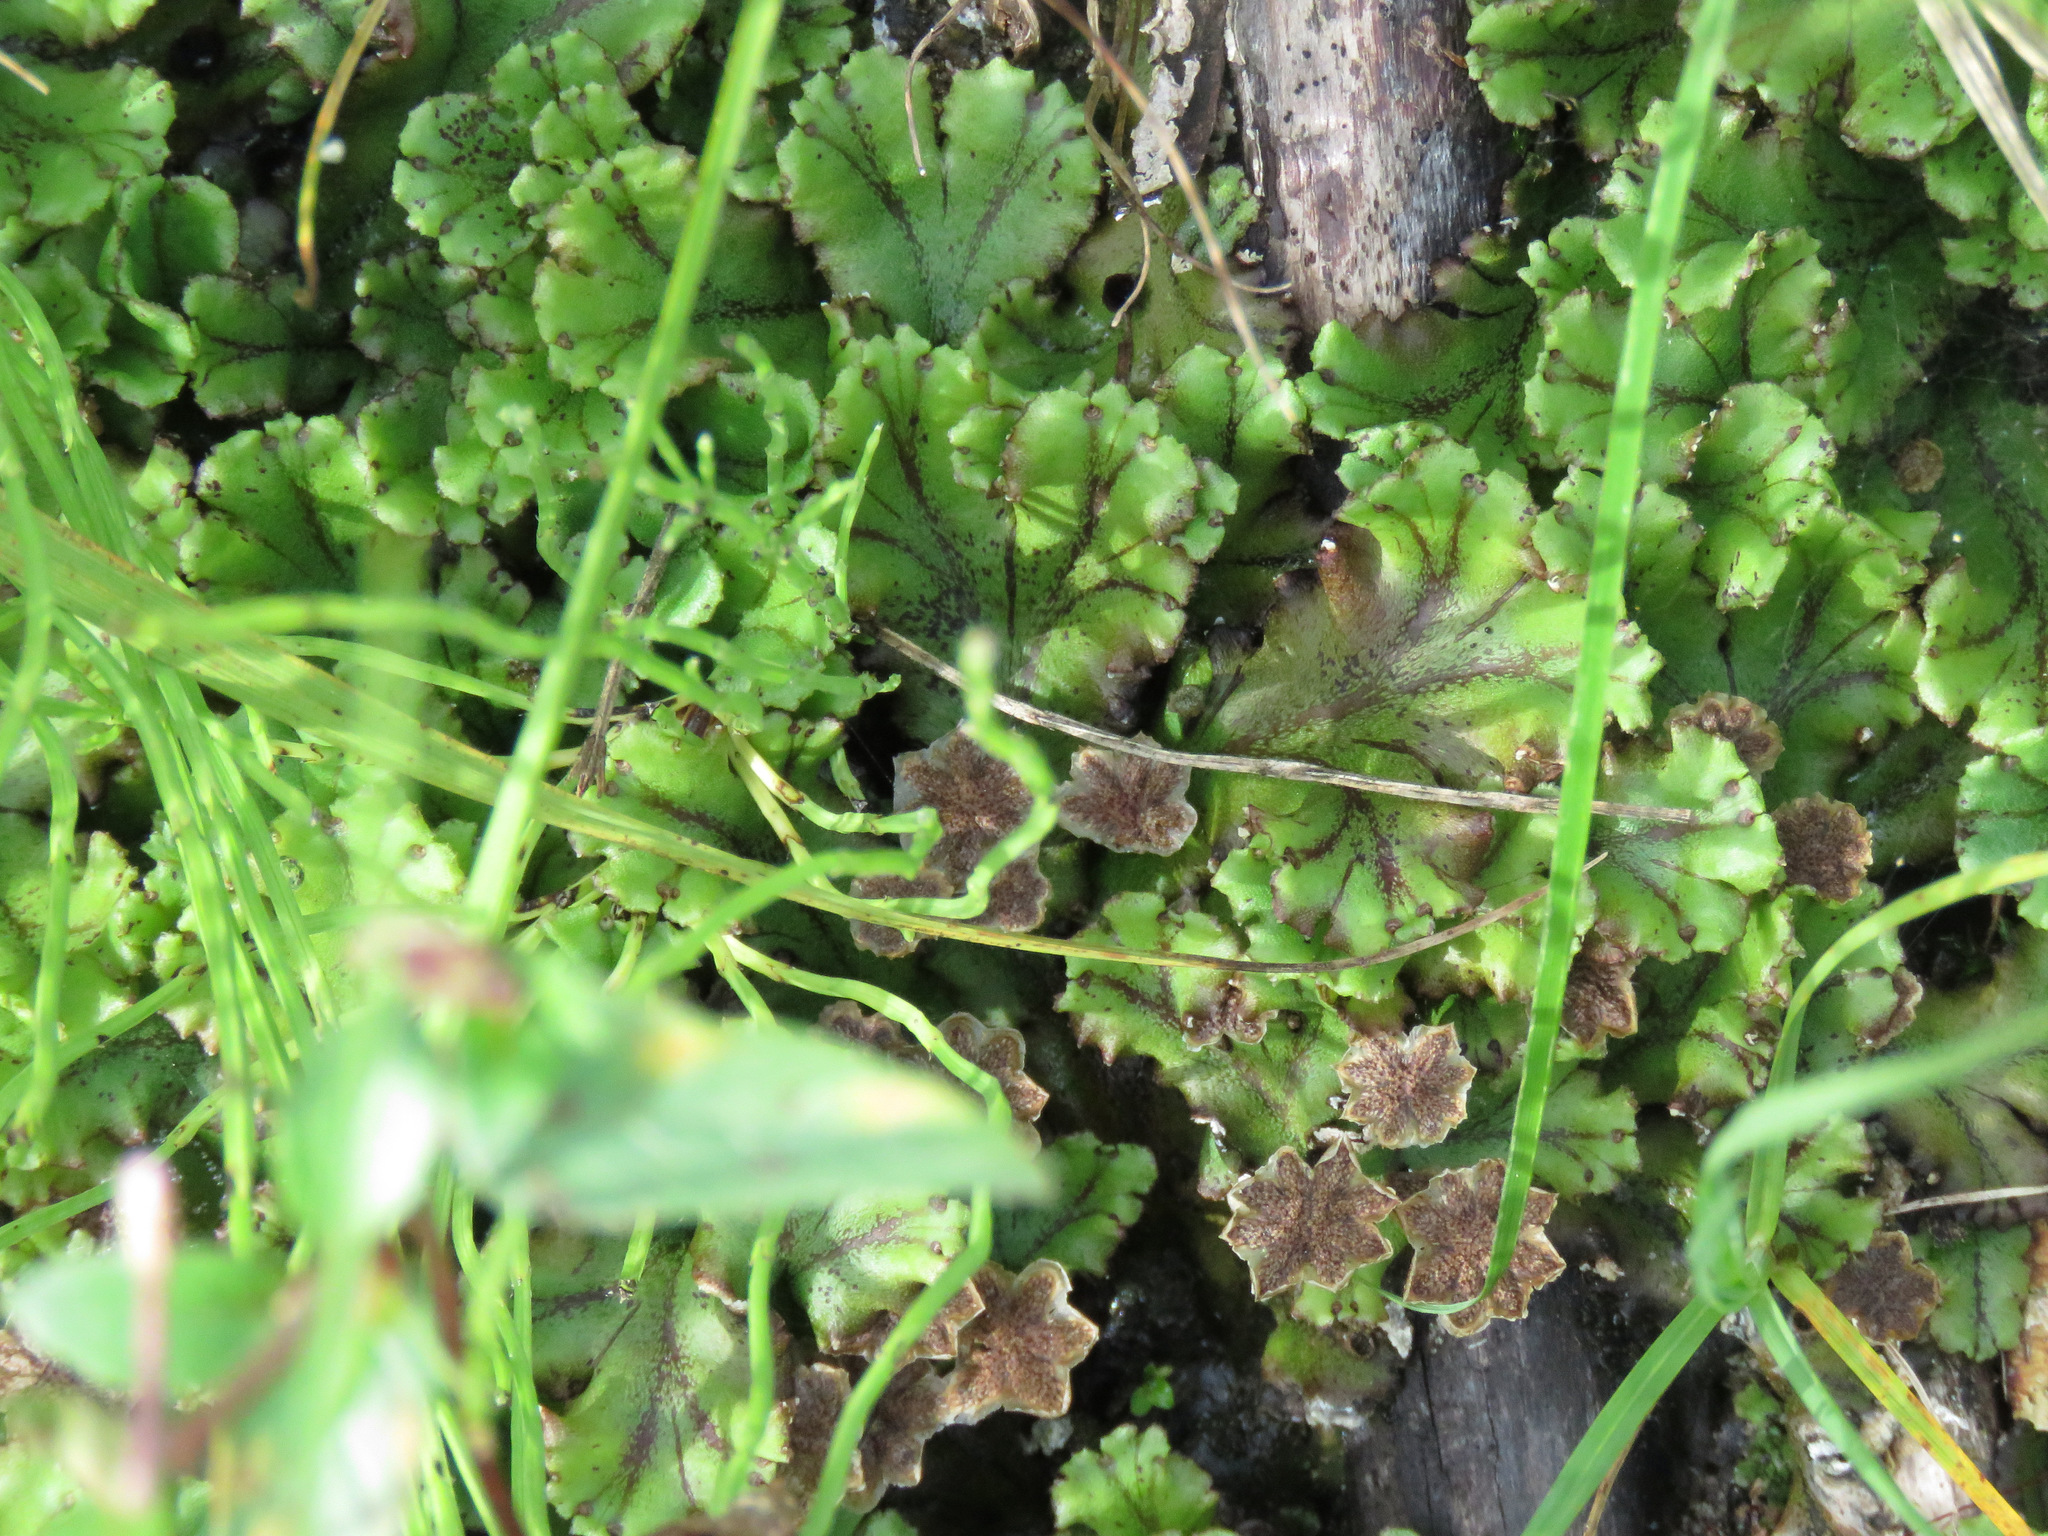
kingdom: Plantae
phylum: Marchantiophyta
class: Marchantiopsida
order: Marchantiales
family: Marchantiaceae
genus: Marchantia
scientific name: Marchantia polymorpha
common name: Common liverwort
